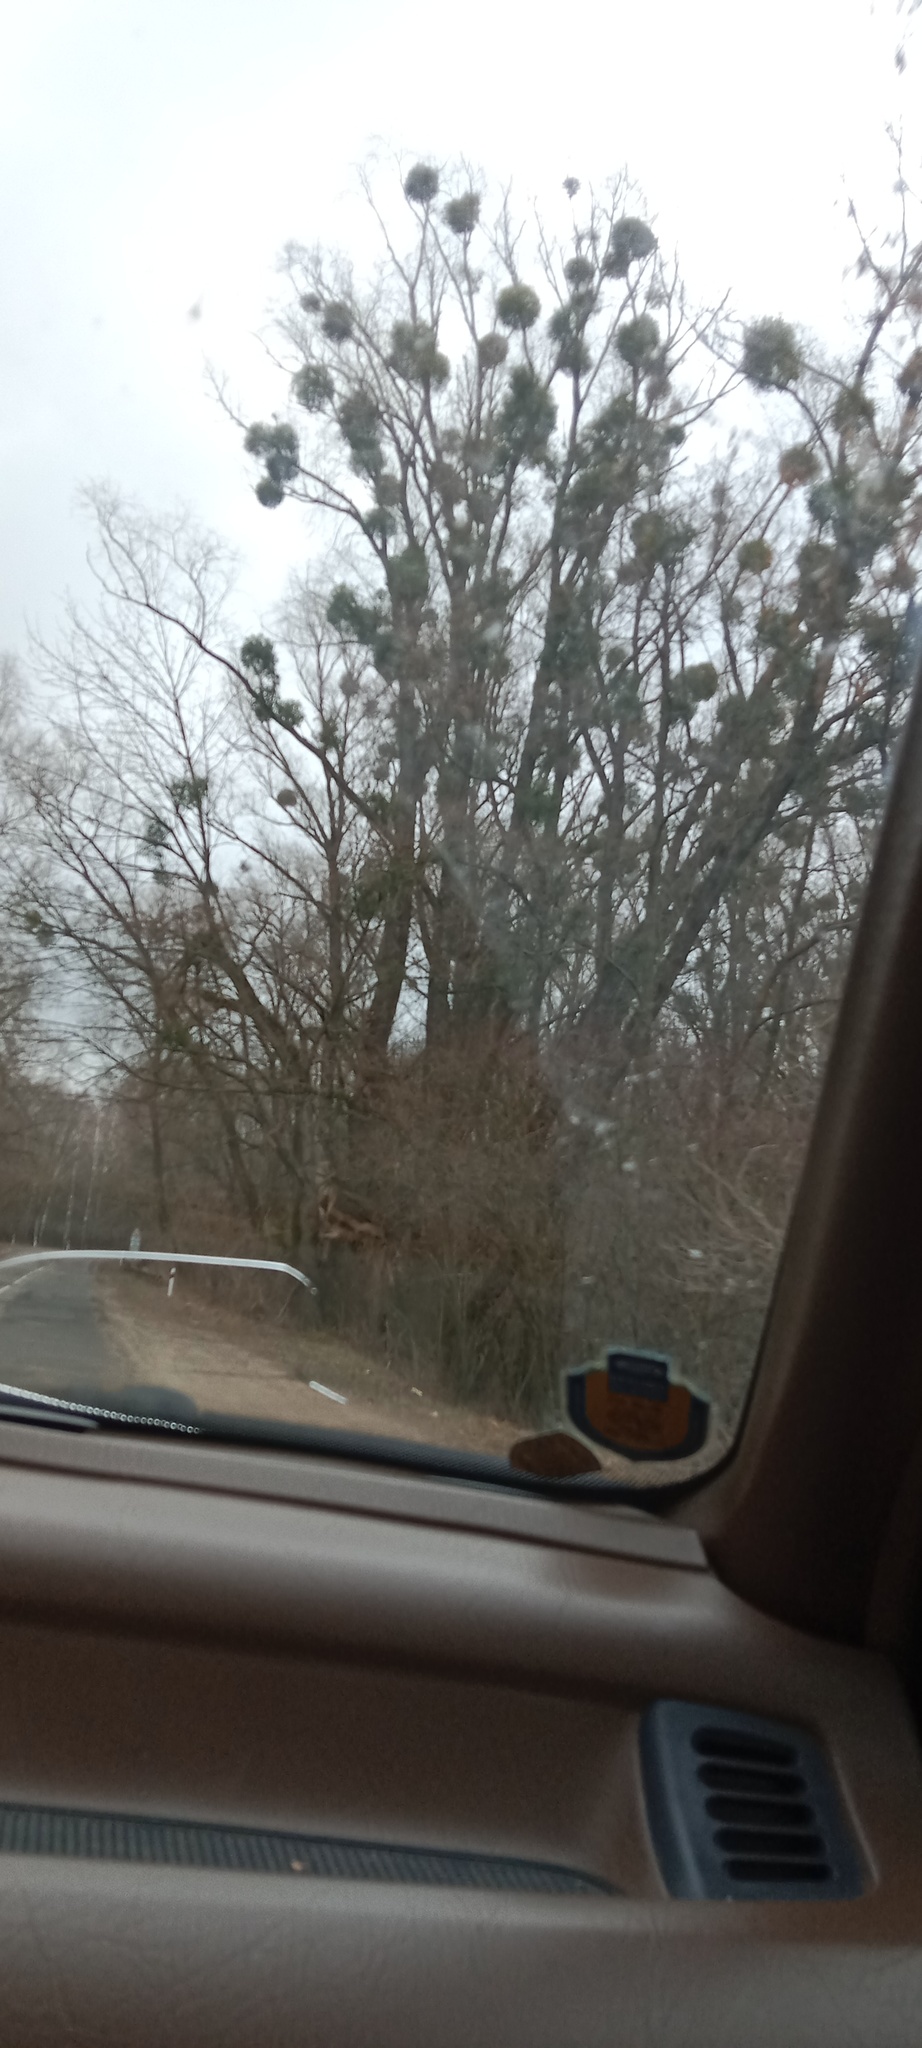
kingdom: Plantae
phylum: Tracheophyta
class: Magnoliopsida
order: Santalales
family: Viscaceae
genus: Viscum
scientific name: Viscum album
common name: Mistletoe
